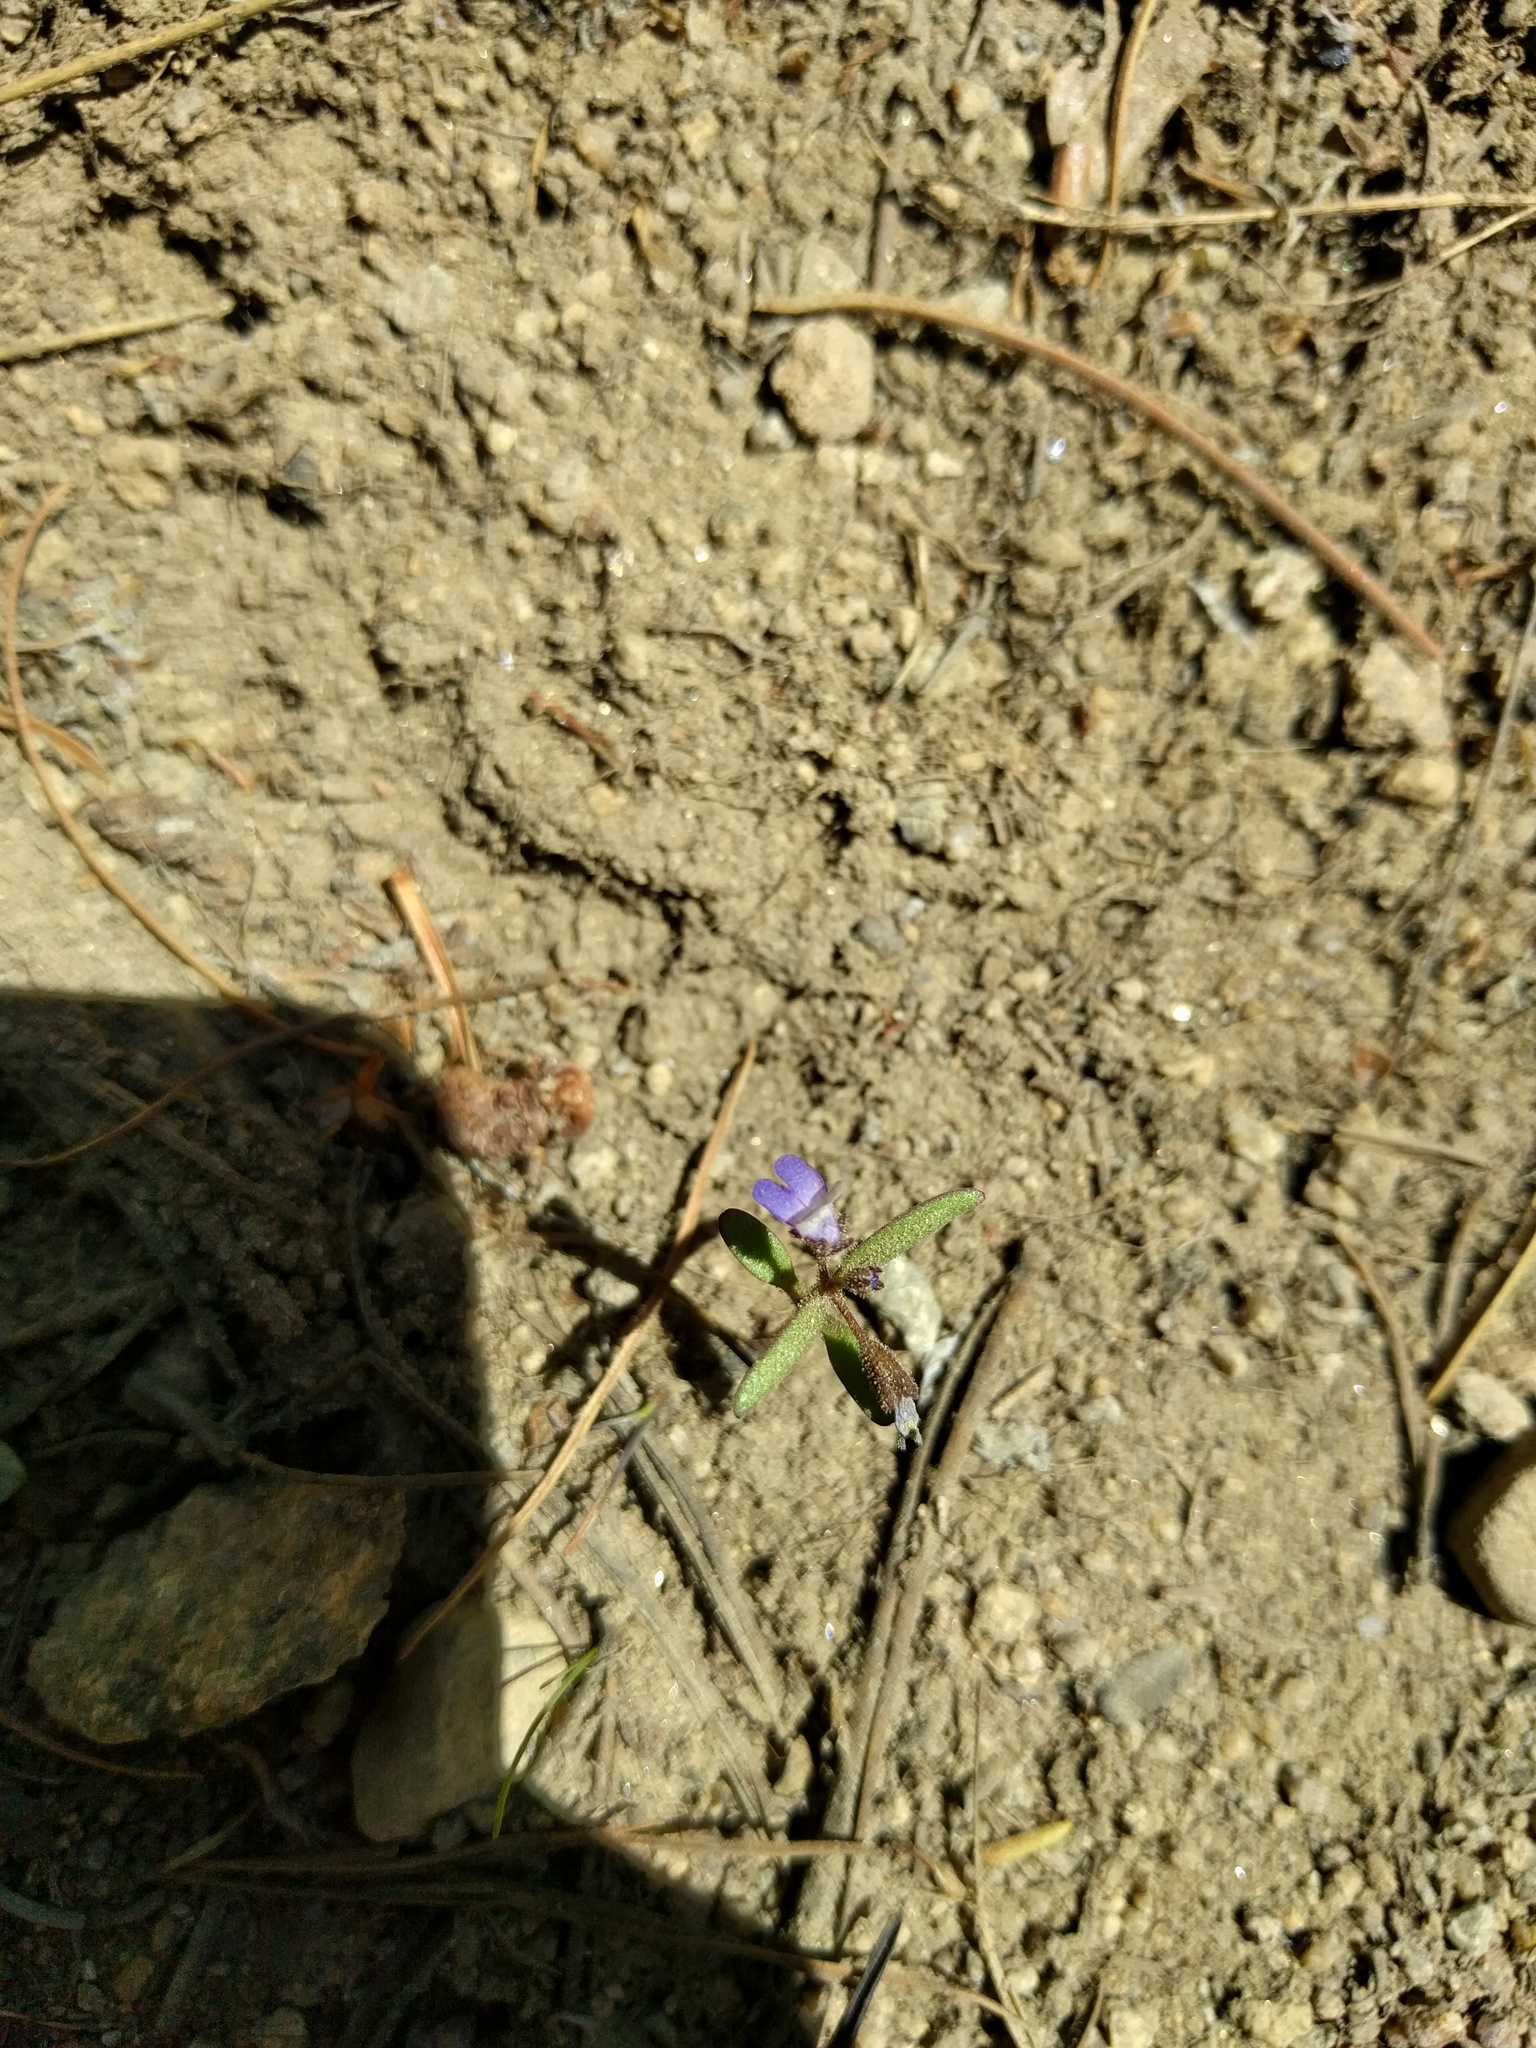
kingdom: Plantae
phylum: Tracheophyta
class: Magnoliopsida
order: Lamiales
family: Plantaginaceae
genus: Collinsia
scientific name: Collinsia torreyi
